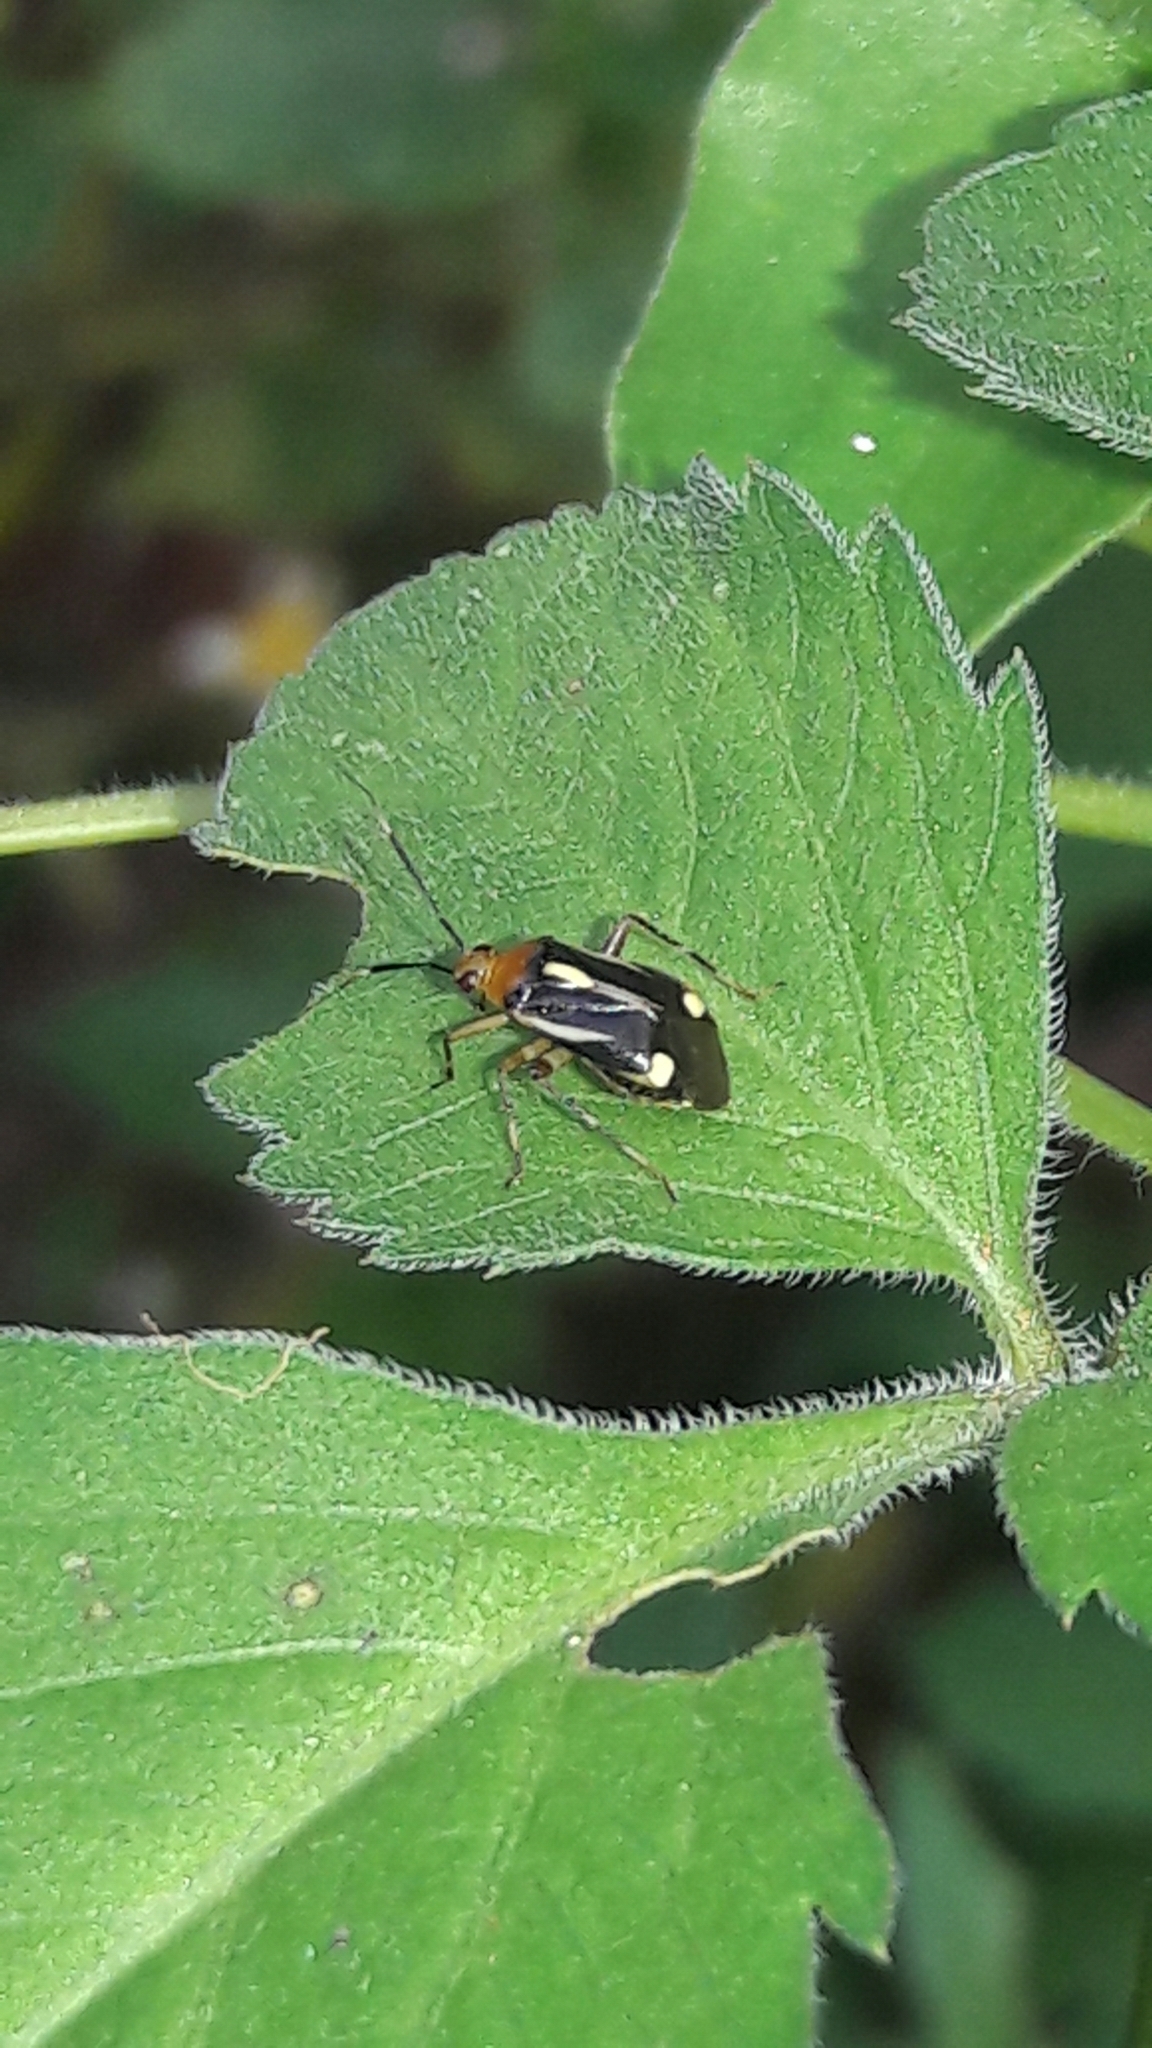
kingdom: Animalia
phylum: Arthropoda
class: Insecta
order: Hemiptera
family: Miridae
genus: Horciasinus
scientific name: Horciasinus signoreti
